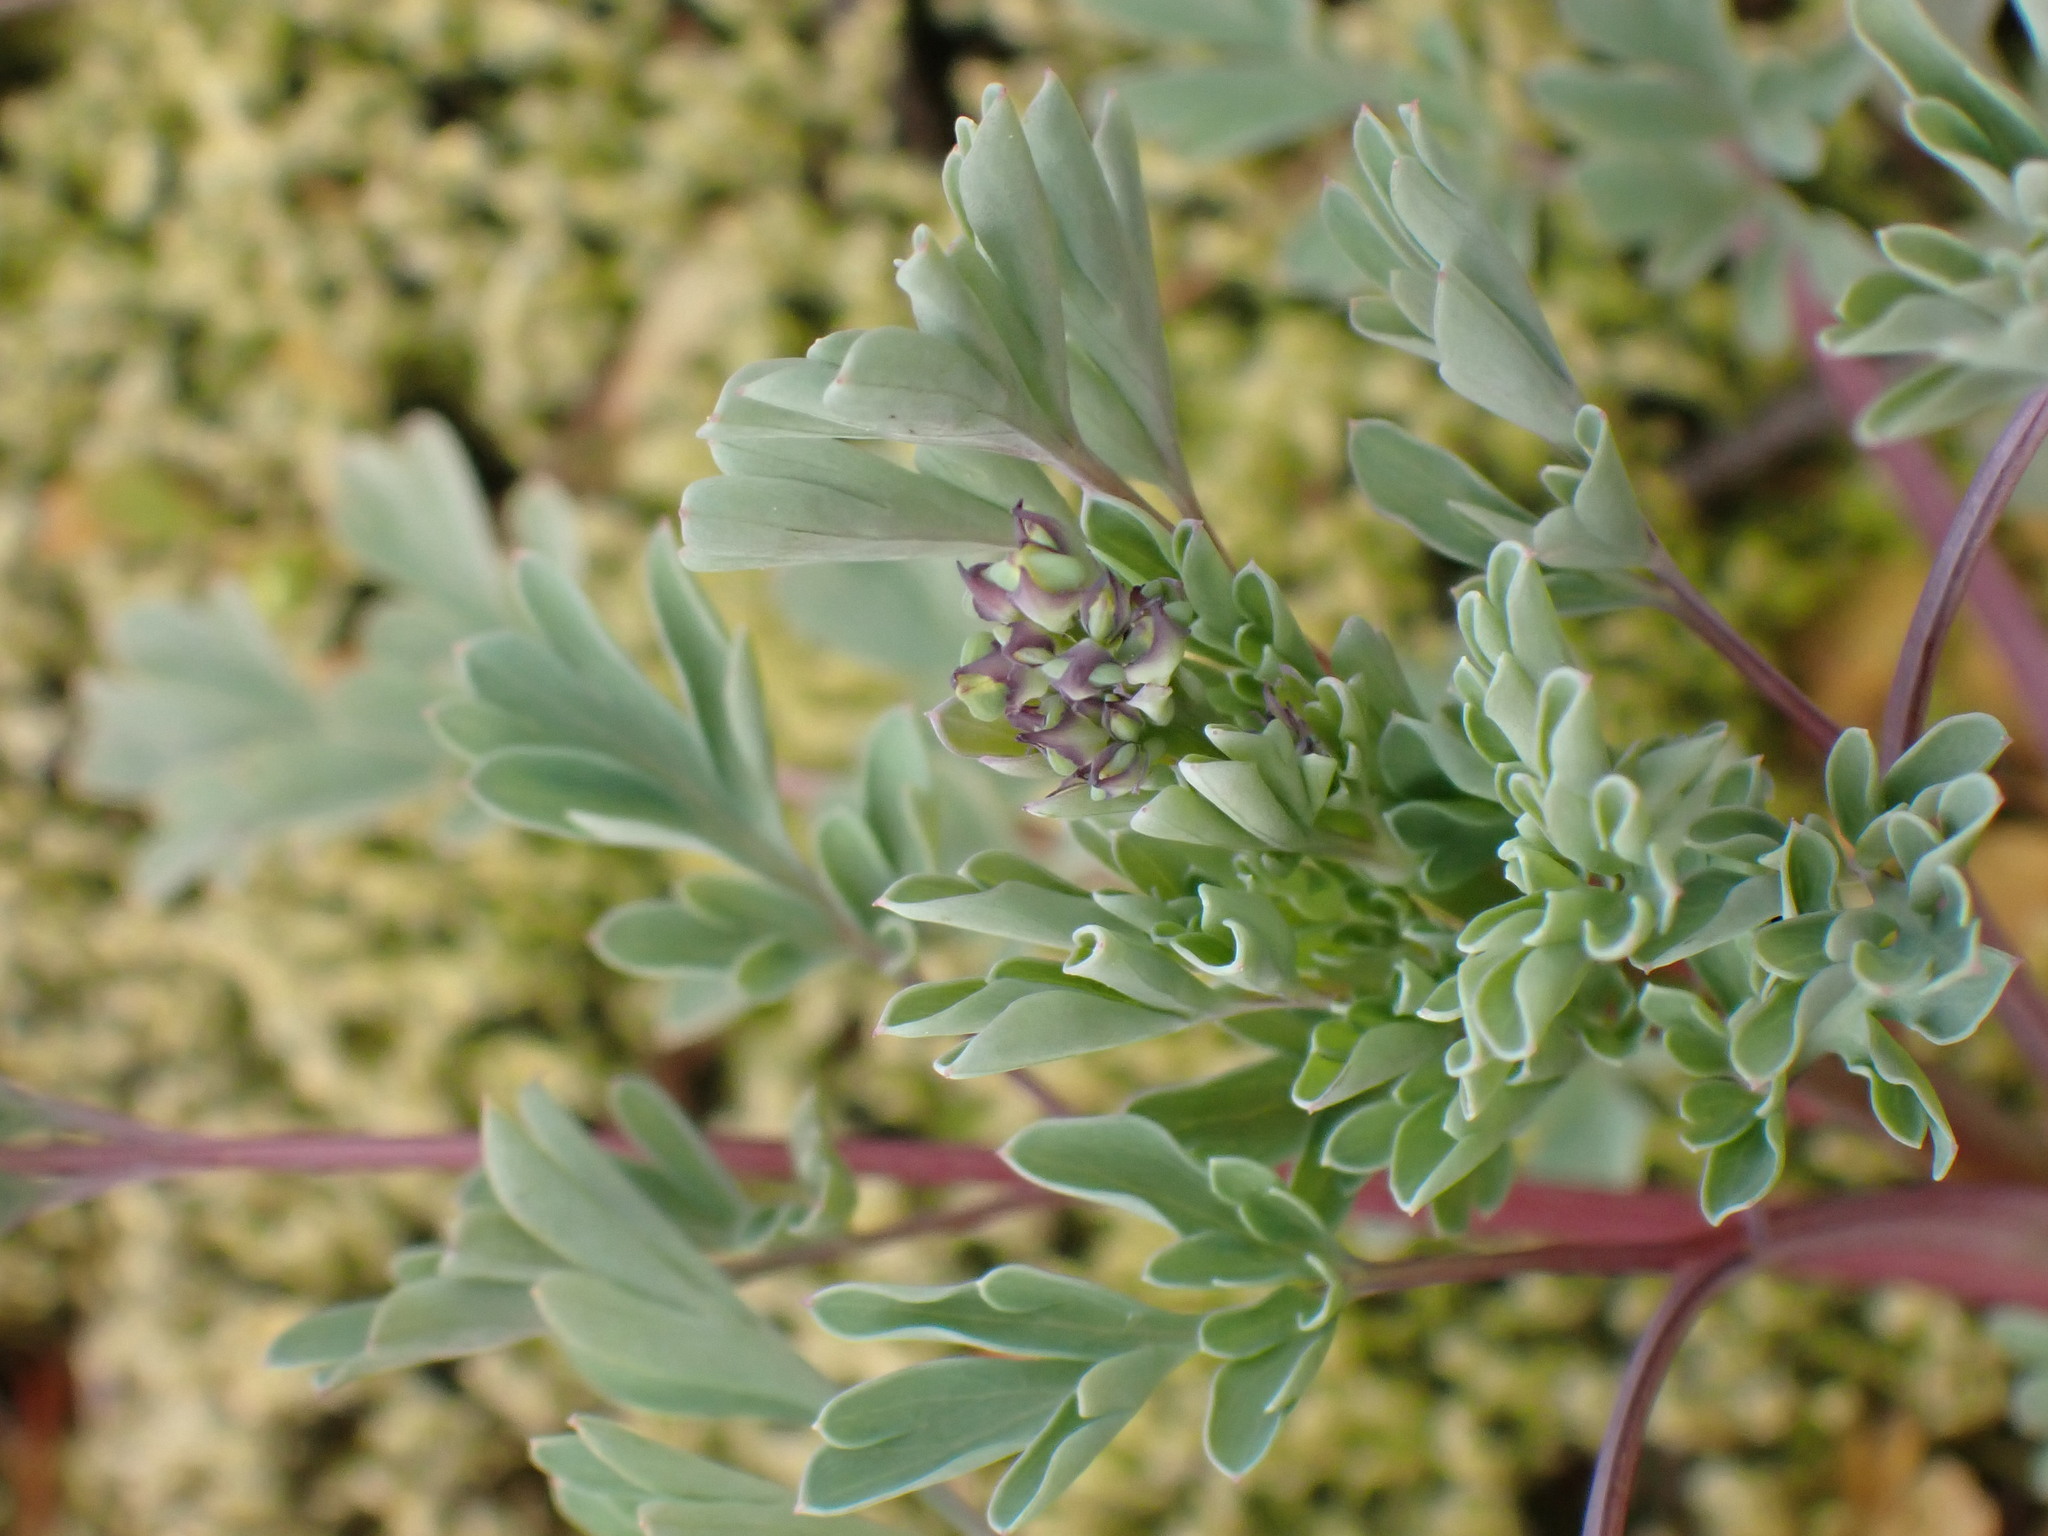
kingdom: Plantae
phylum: Tracheophyta
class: Magnoliopsida
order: Ranunculales
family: Papaveraceae
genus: Capnoides
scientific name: Capnoides sempervirens
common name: Rock harlequin
